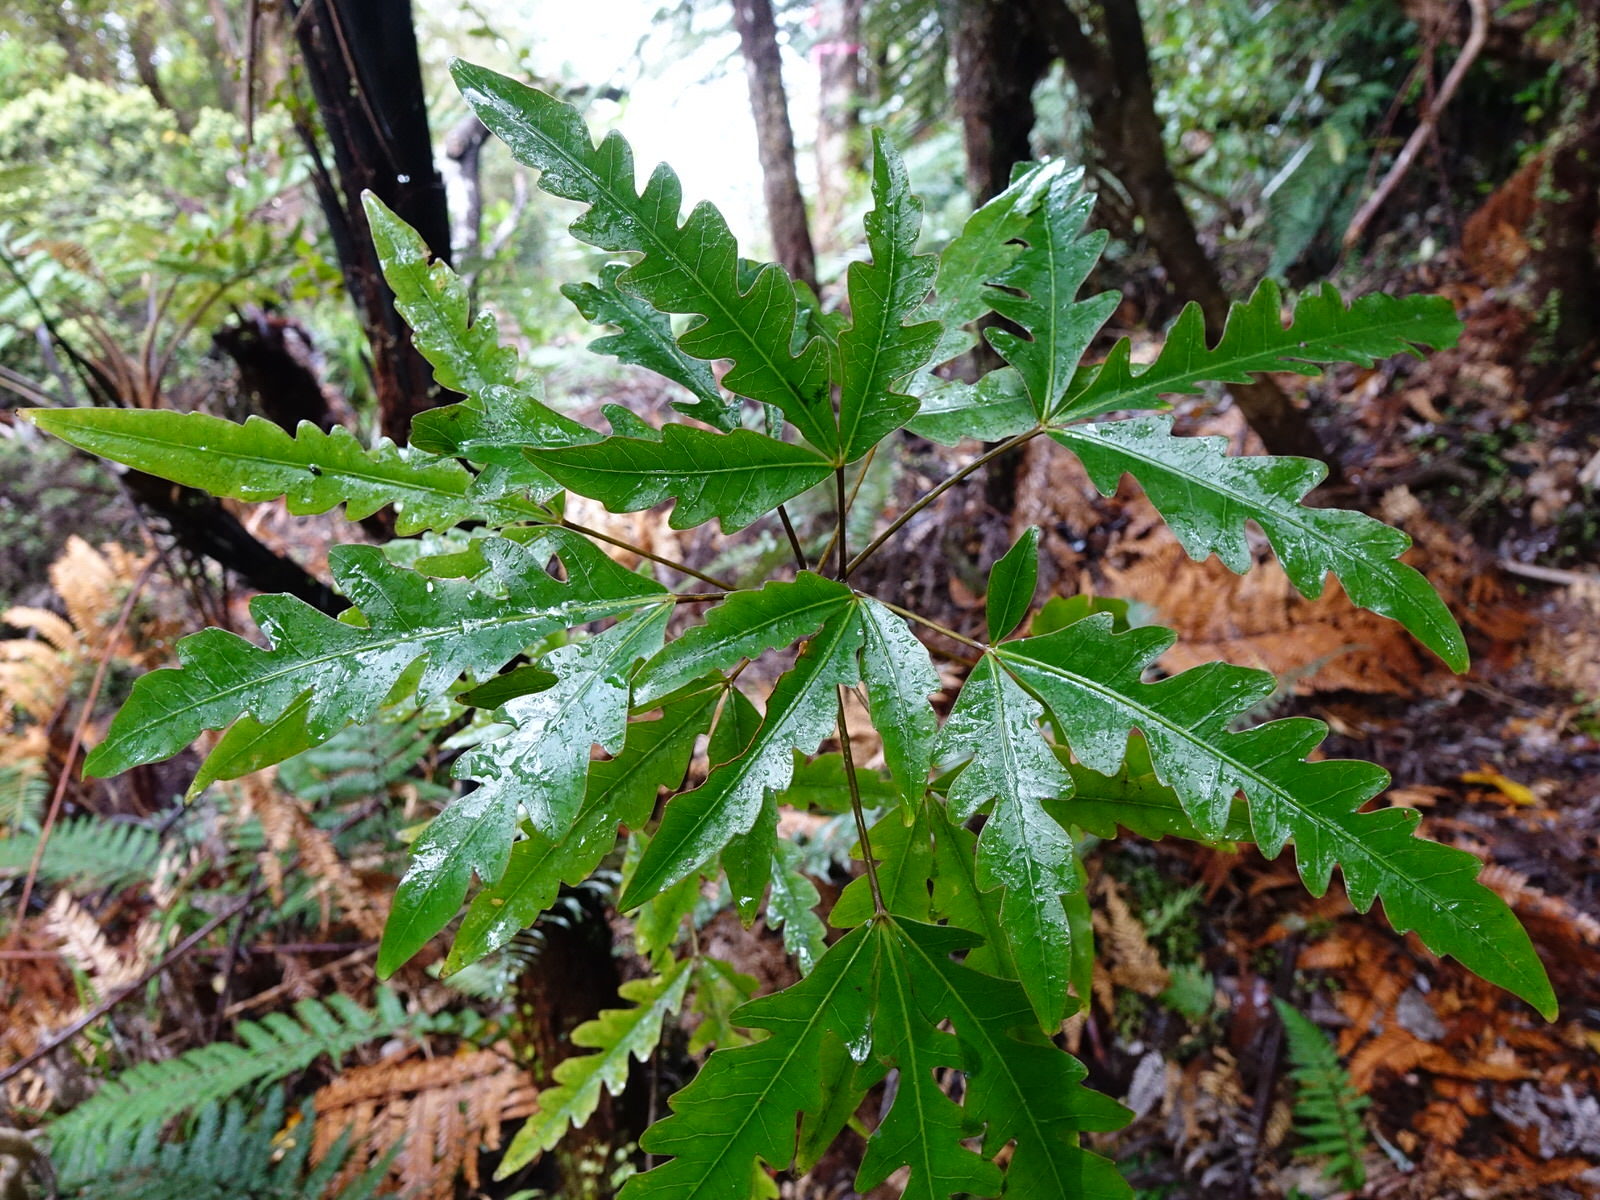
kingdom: Plantae
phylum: Tracheophyta
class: Magnoliopsida
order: Apiales
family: Araliaceae
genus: Raukaua
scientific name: Raukaua edgerleyi
